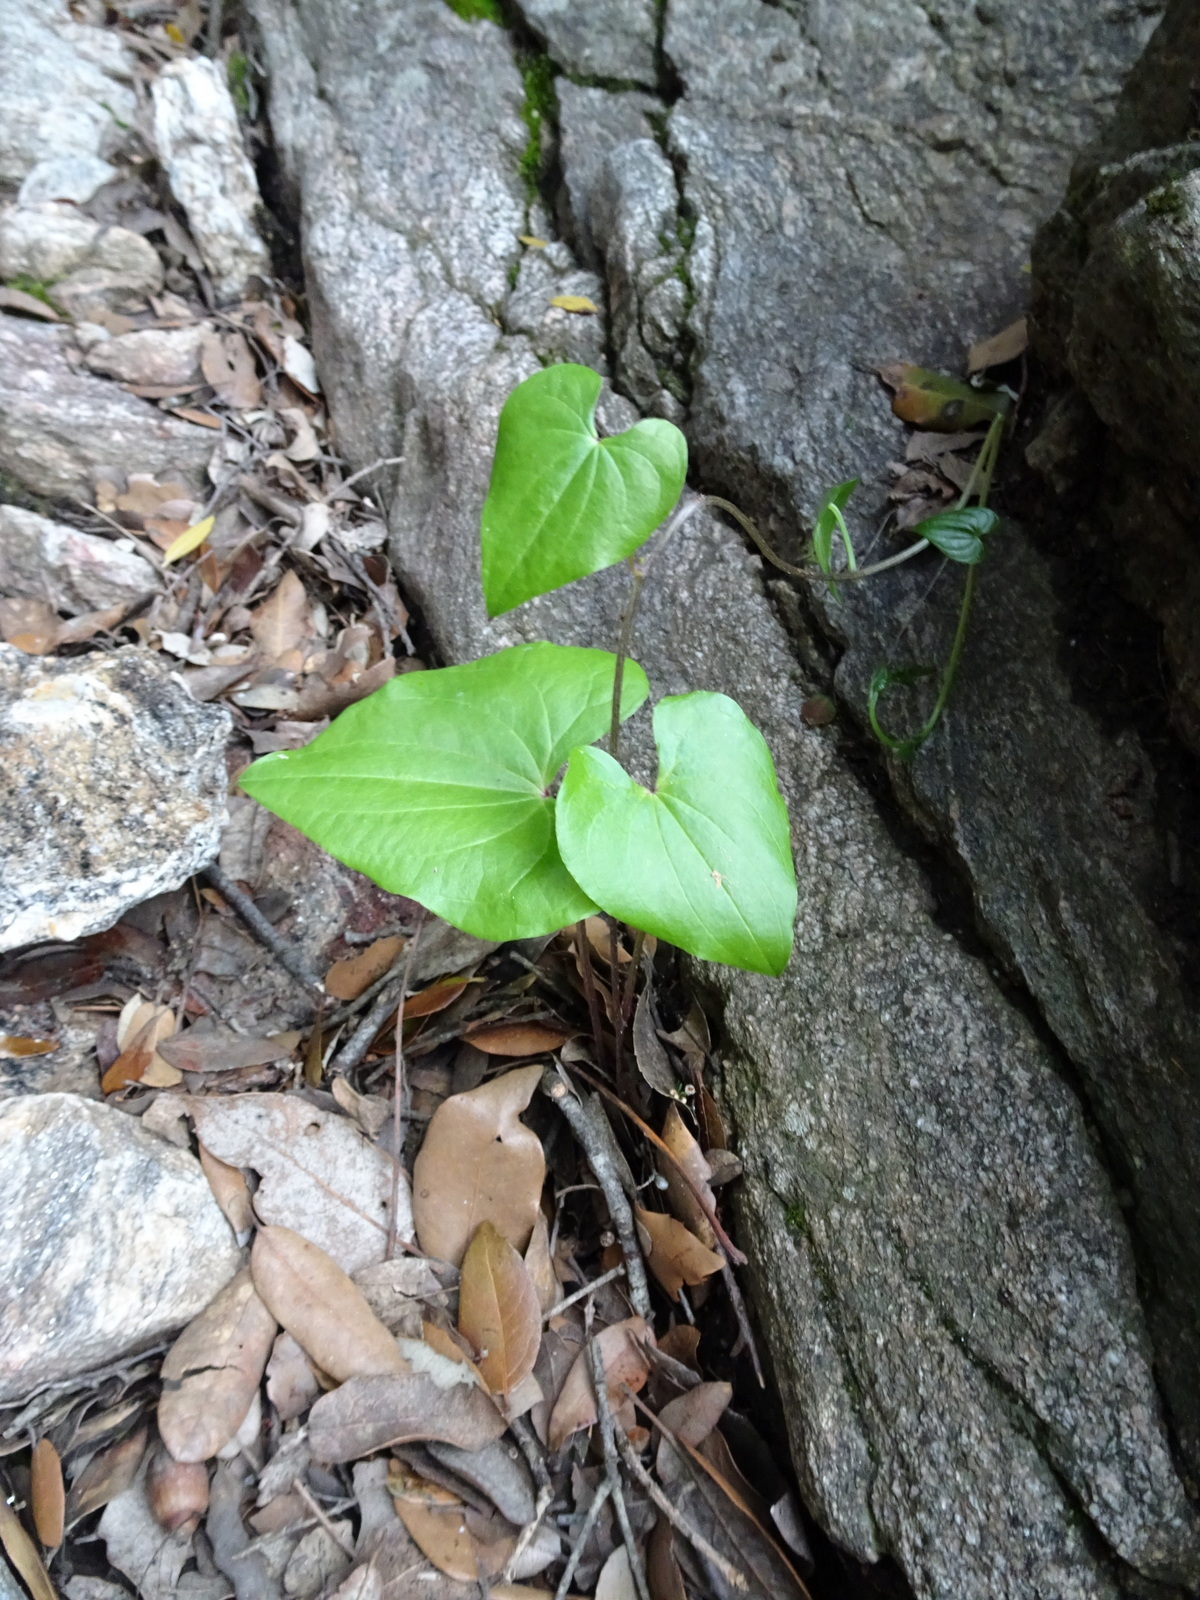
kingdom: Plantae
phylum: Tracheophyta
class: Liliopsida
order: Dioscoreales
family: Dioscoreaceae
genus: Dioscorea
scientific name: Dioscorea communis
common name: Black-bindweed
